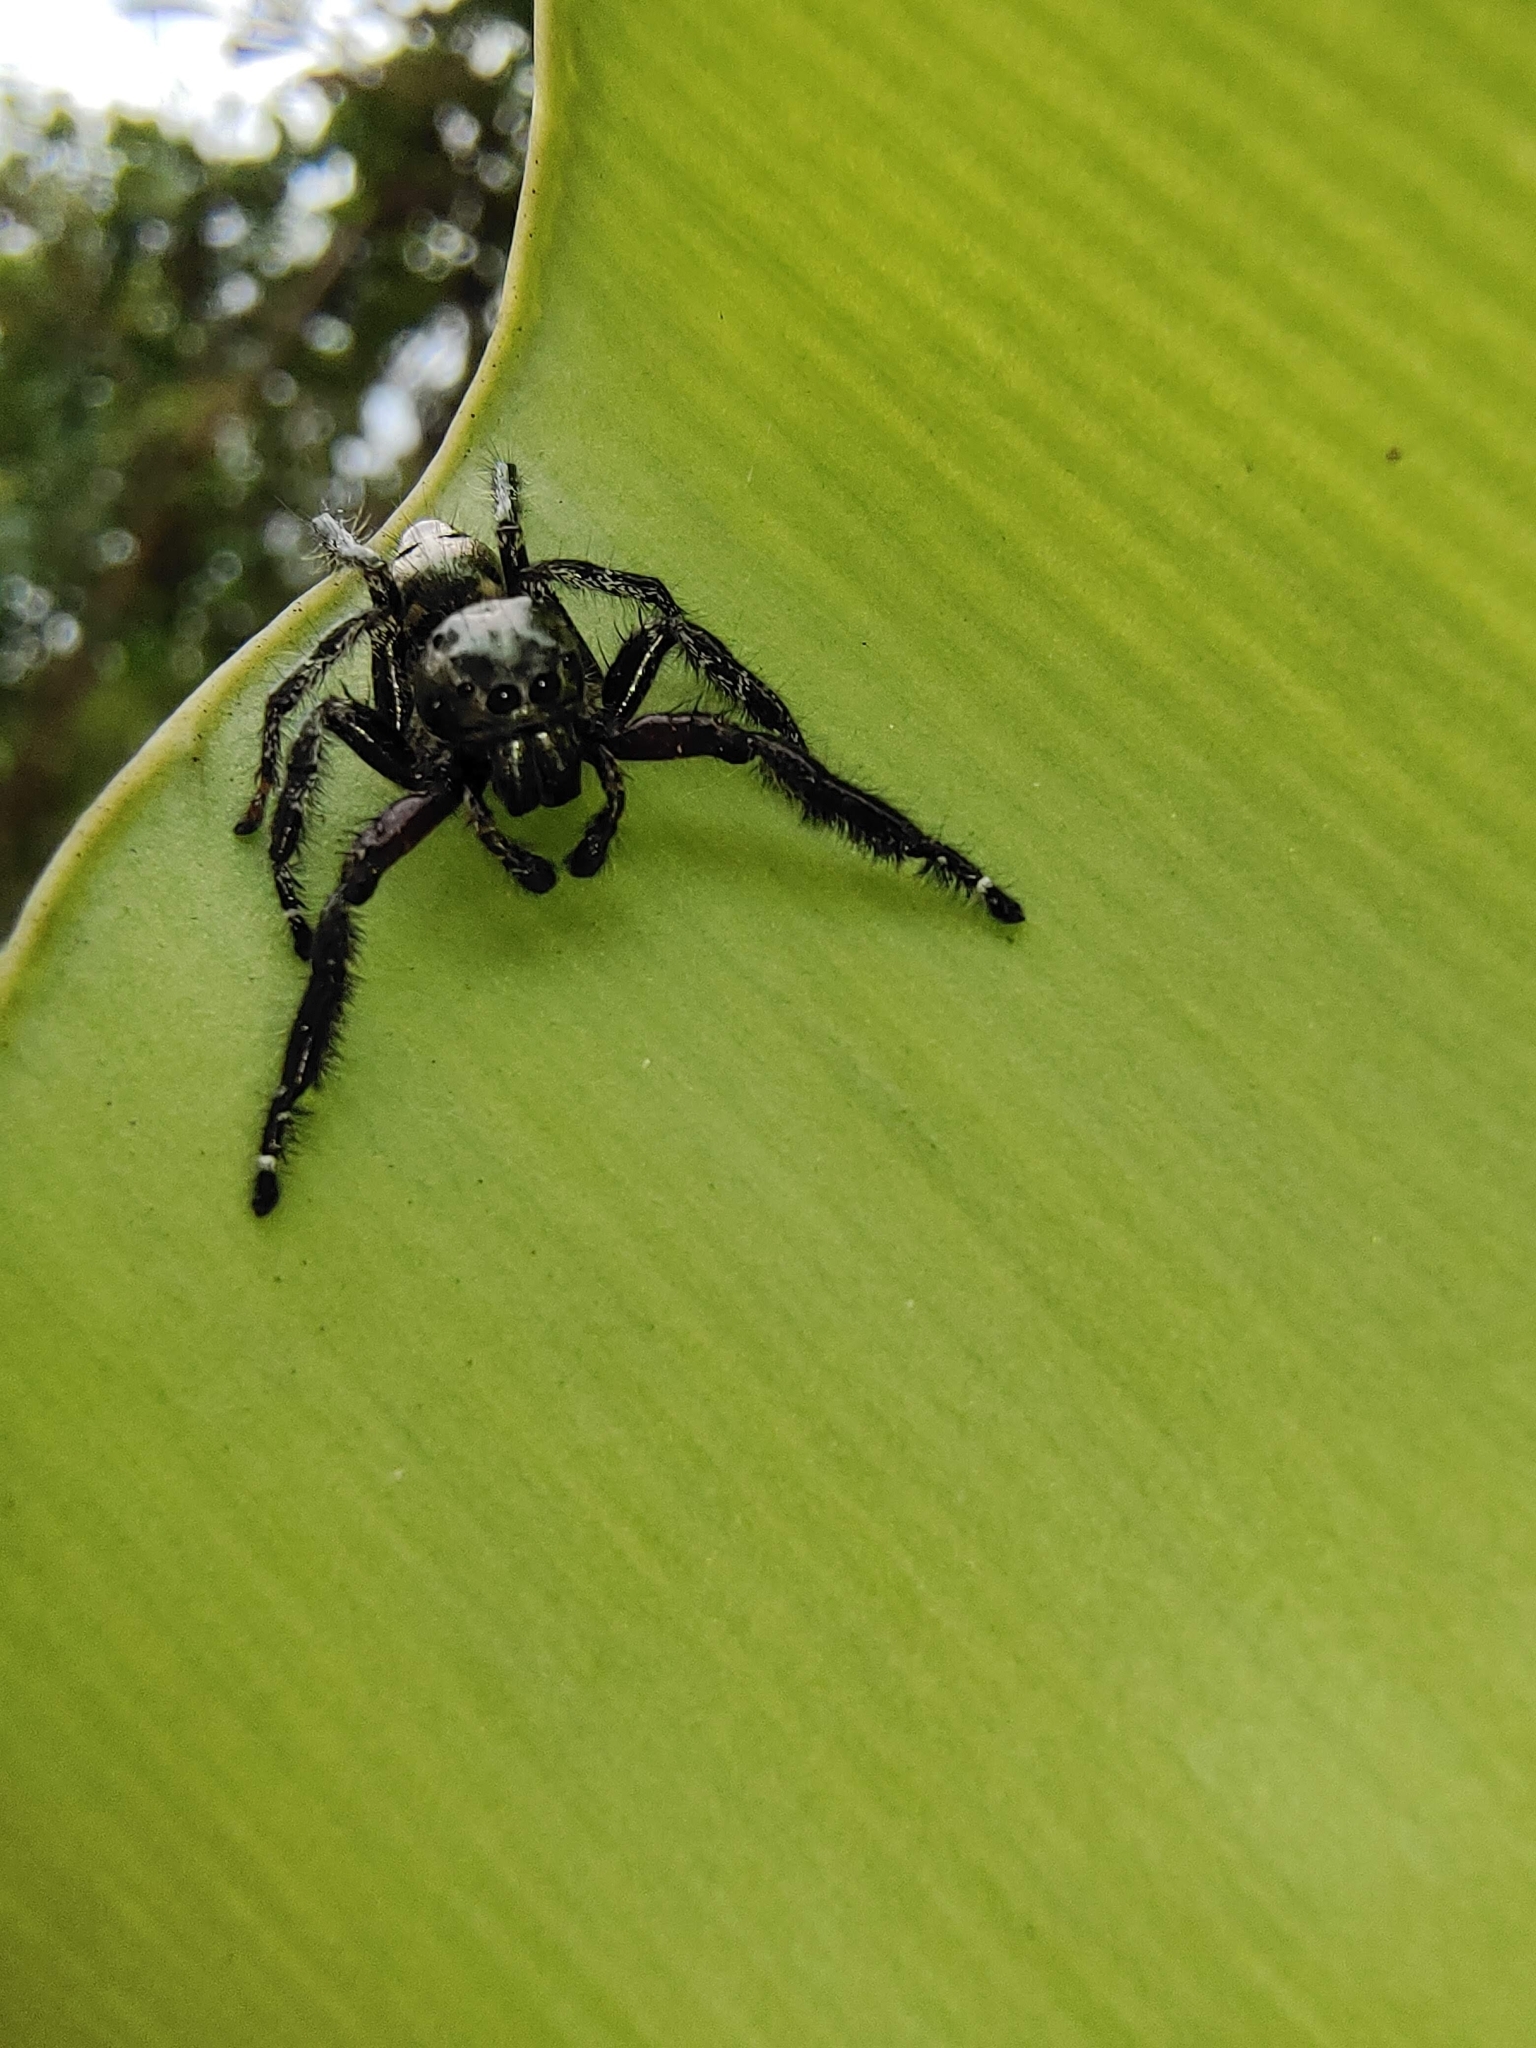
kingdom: Animalia
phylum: Arthropoda
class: Arachnida
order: Araneae
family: Salticidae
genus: Hyllus
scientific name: Hyllus diardi
